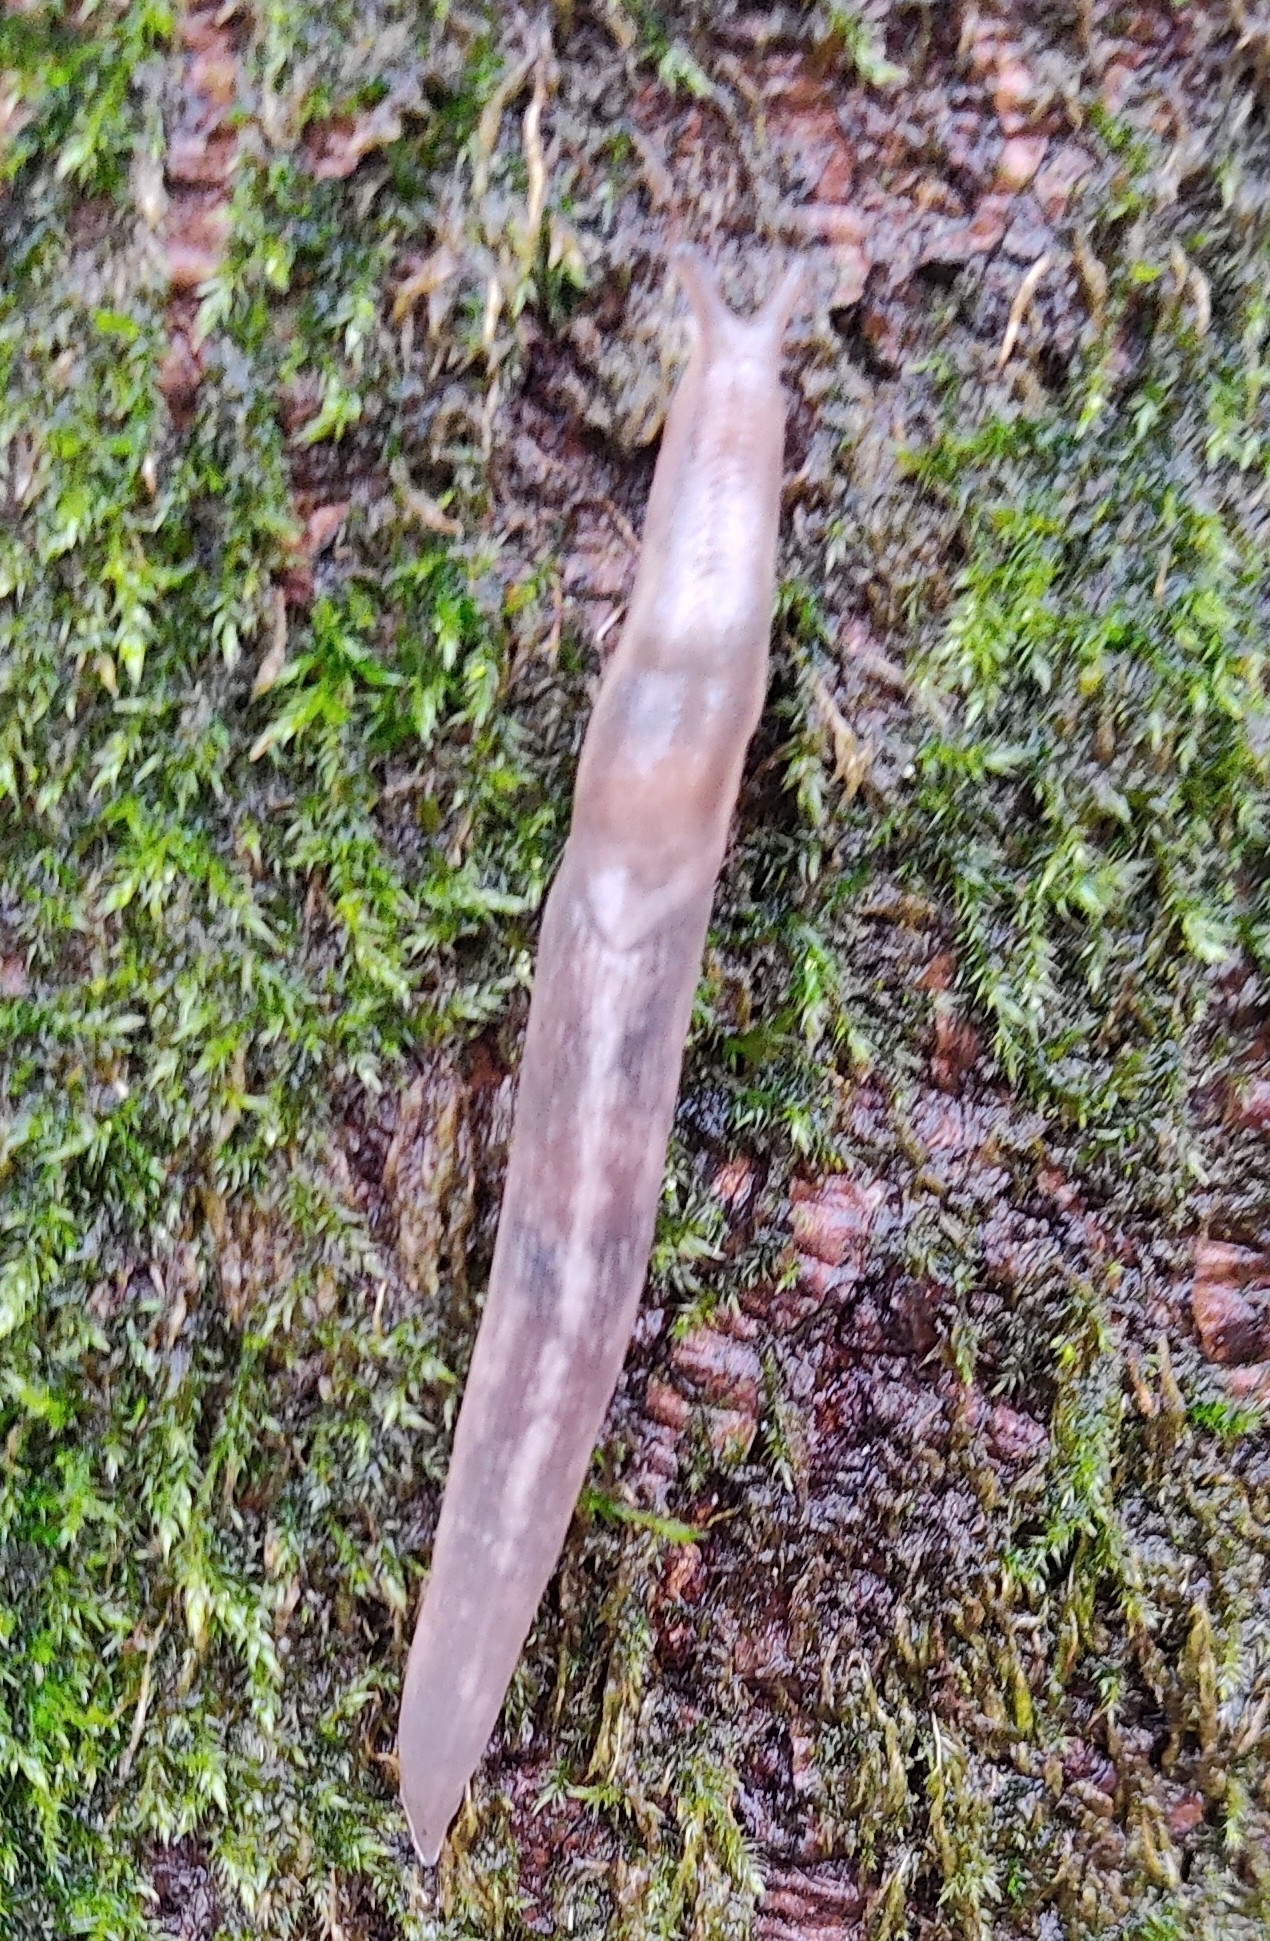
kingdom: Animalia
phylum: Mollusca
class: Gastropoda
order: Stylommatophora
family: Limacidae
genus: Lehmannia
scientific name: Lehmannia marginata
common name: Tree slug
